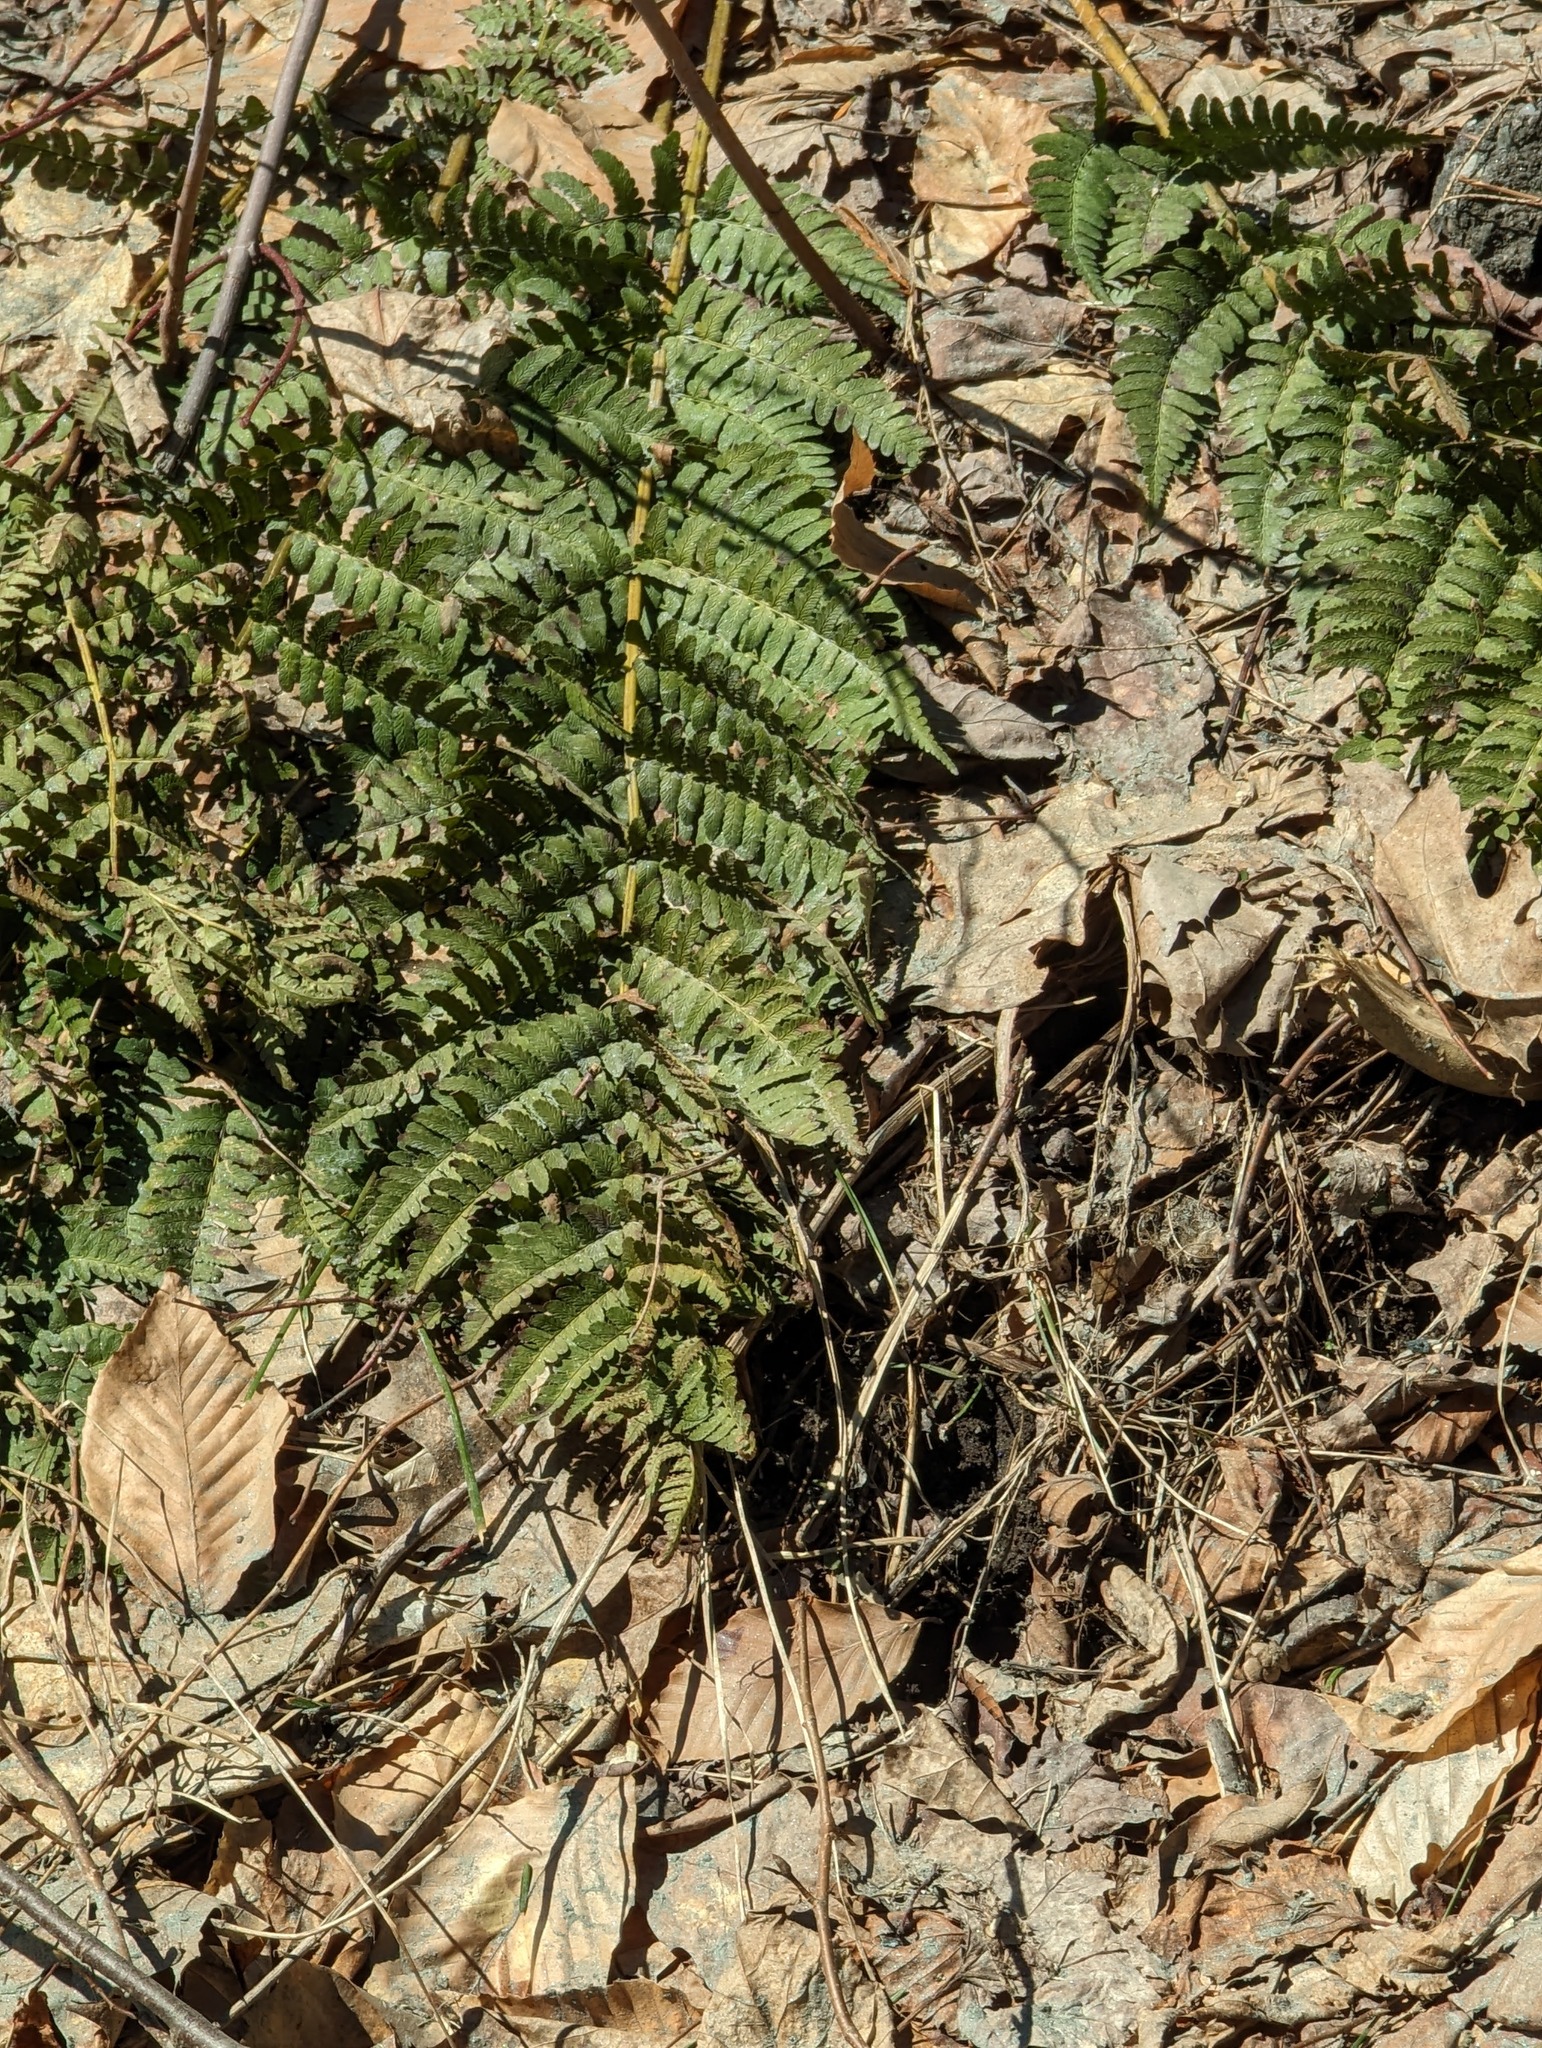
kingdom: Plantae
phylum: Tracheophyta
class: Polypodiopsida
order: Polypodiales
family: Dryopteridaceae
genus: Dryopteris
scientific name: Dryopteris marginalis
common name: Marginal wood fern
